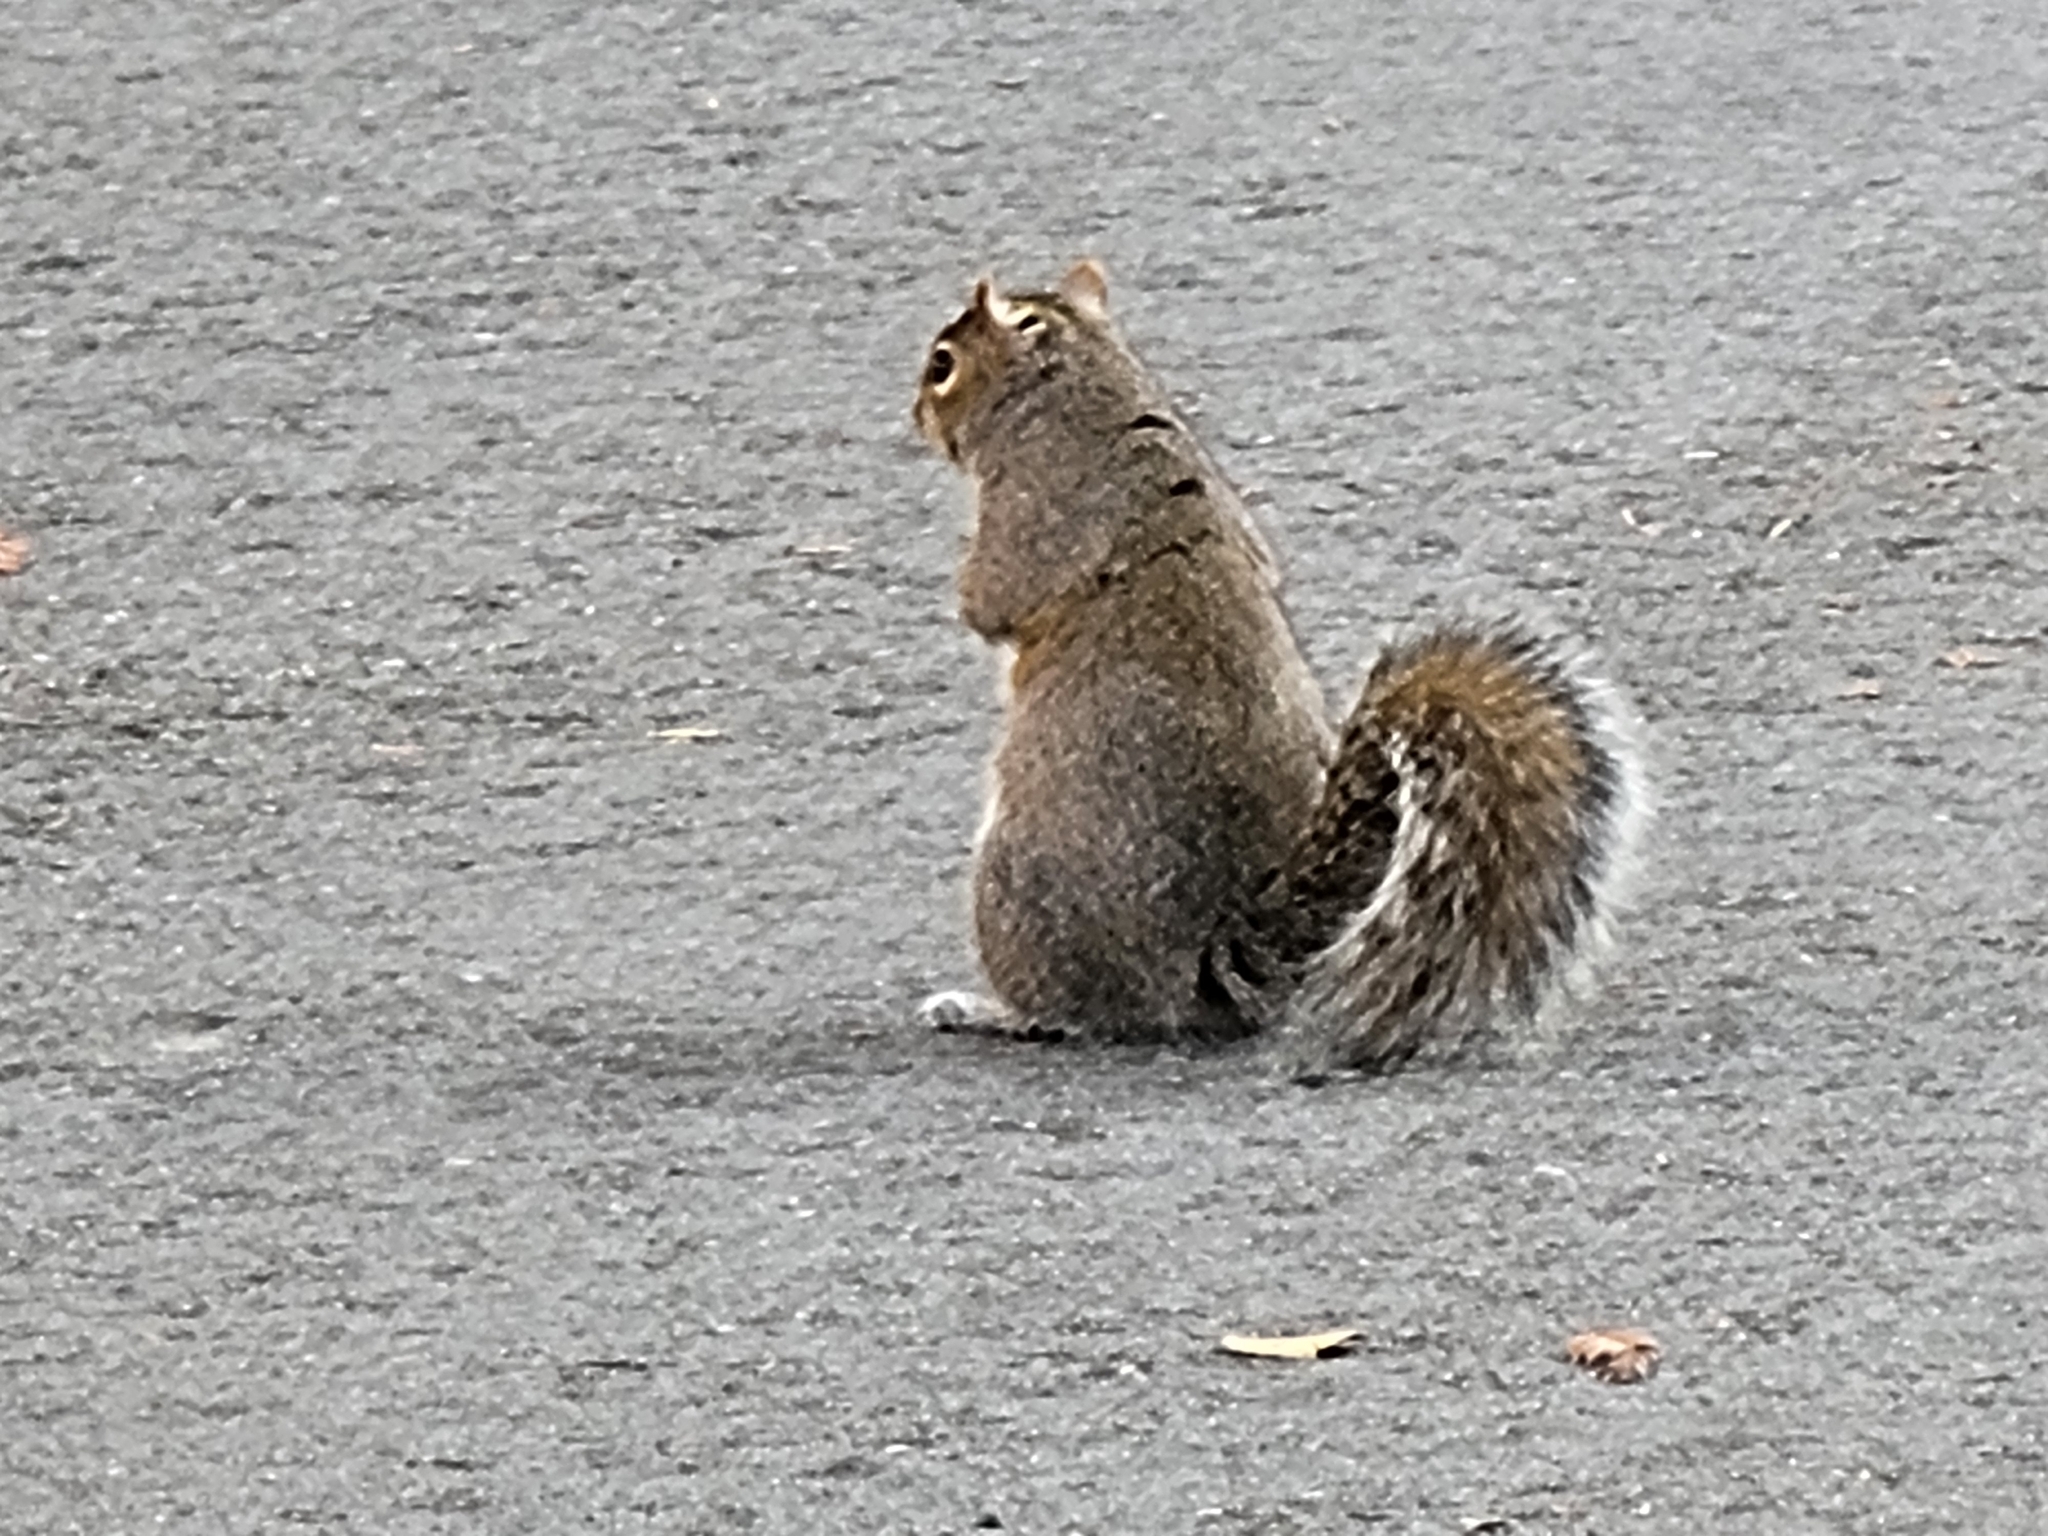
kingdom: Animalia
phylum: Chordata
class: Mammalia
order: Rodentia
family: Sciuridae
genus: Sciurus
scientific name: Sciurus carolinensis
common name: Eastern gray squirrel
